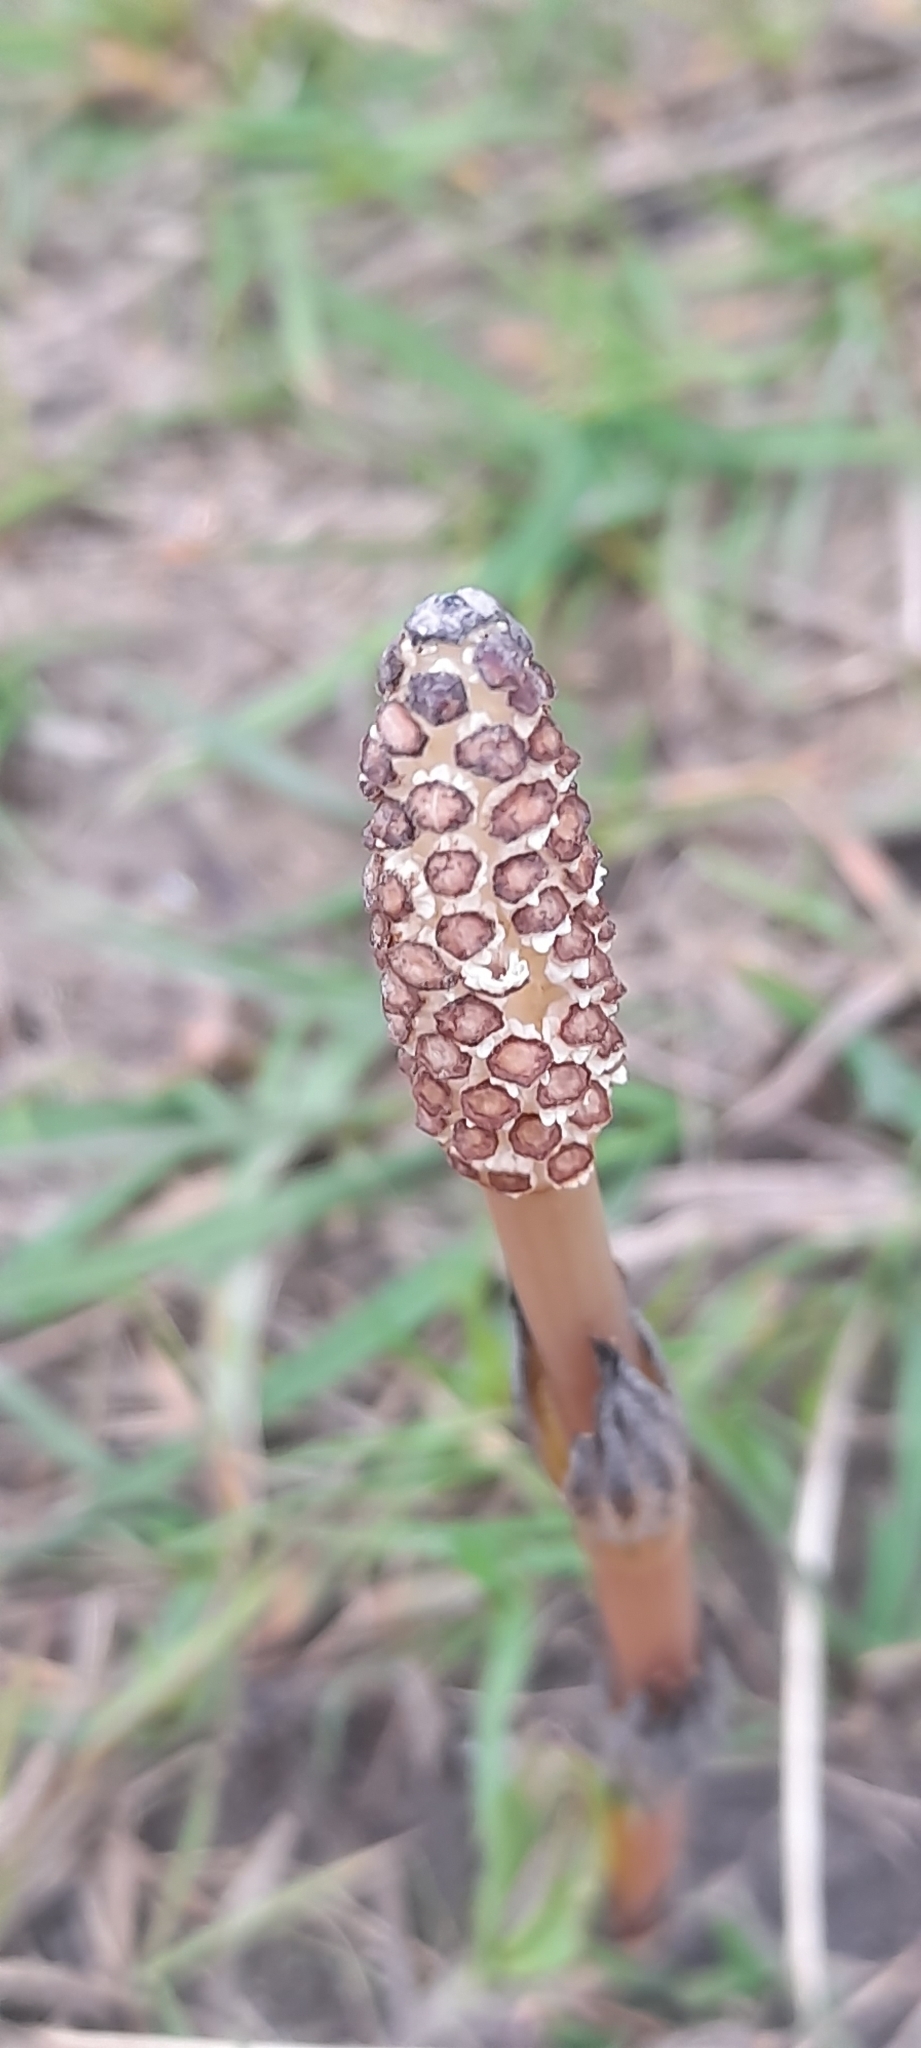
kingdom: Plantae
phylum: Tracheophyta
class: Polypodiopsida
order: Equisetales
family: Equisetaceae
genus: Equisetum
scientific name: Equisetum arvense
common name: Field horsetail
